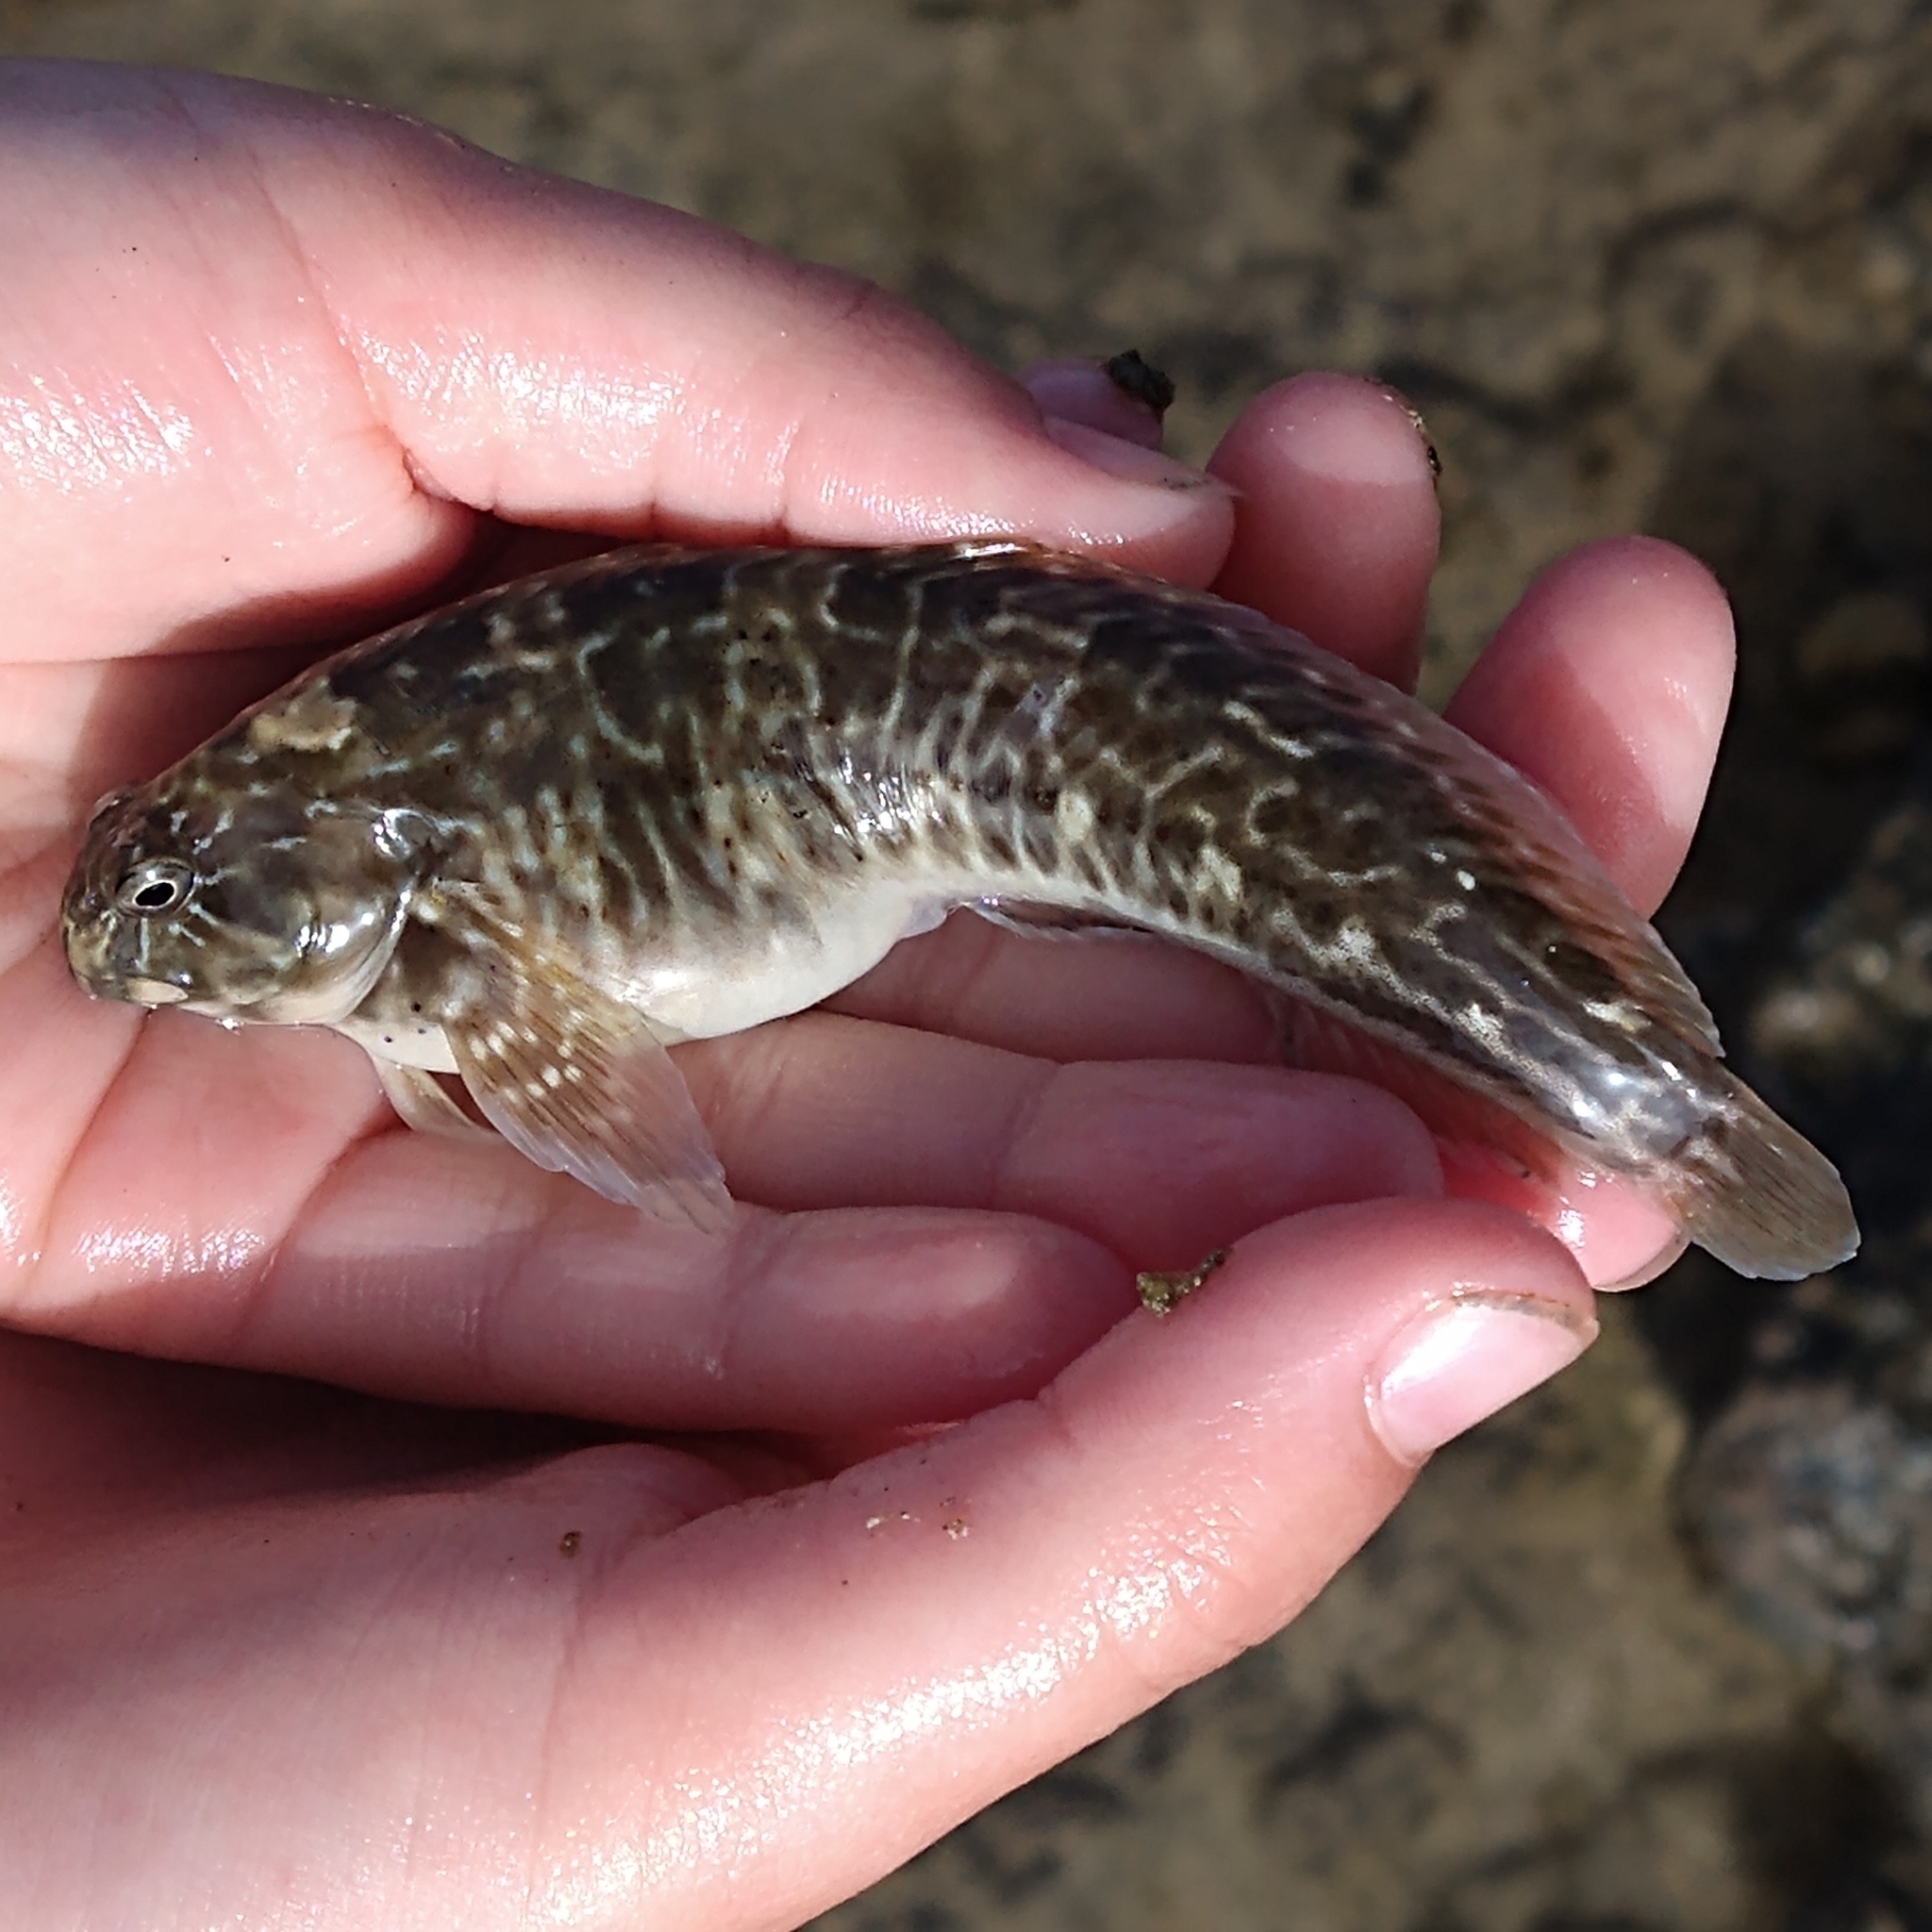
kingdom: Animalia
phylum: Chordata
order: Perciformes
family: Blenniidae
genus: Parablennius
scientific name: Parablennius parvicornis
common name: Rock-pool blenny
